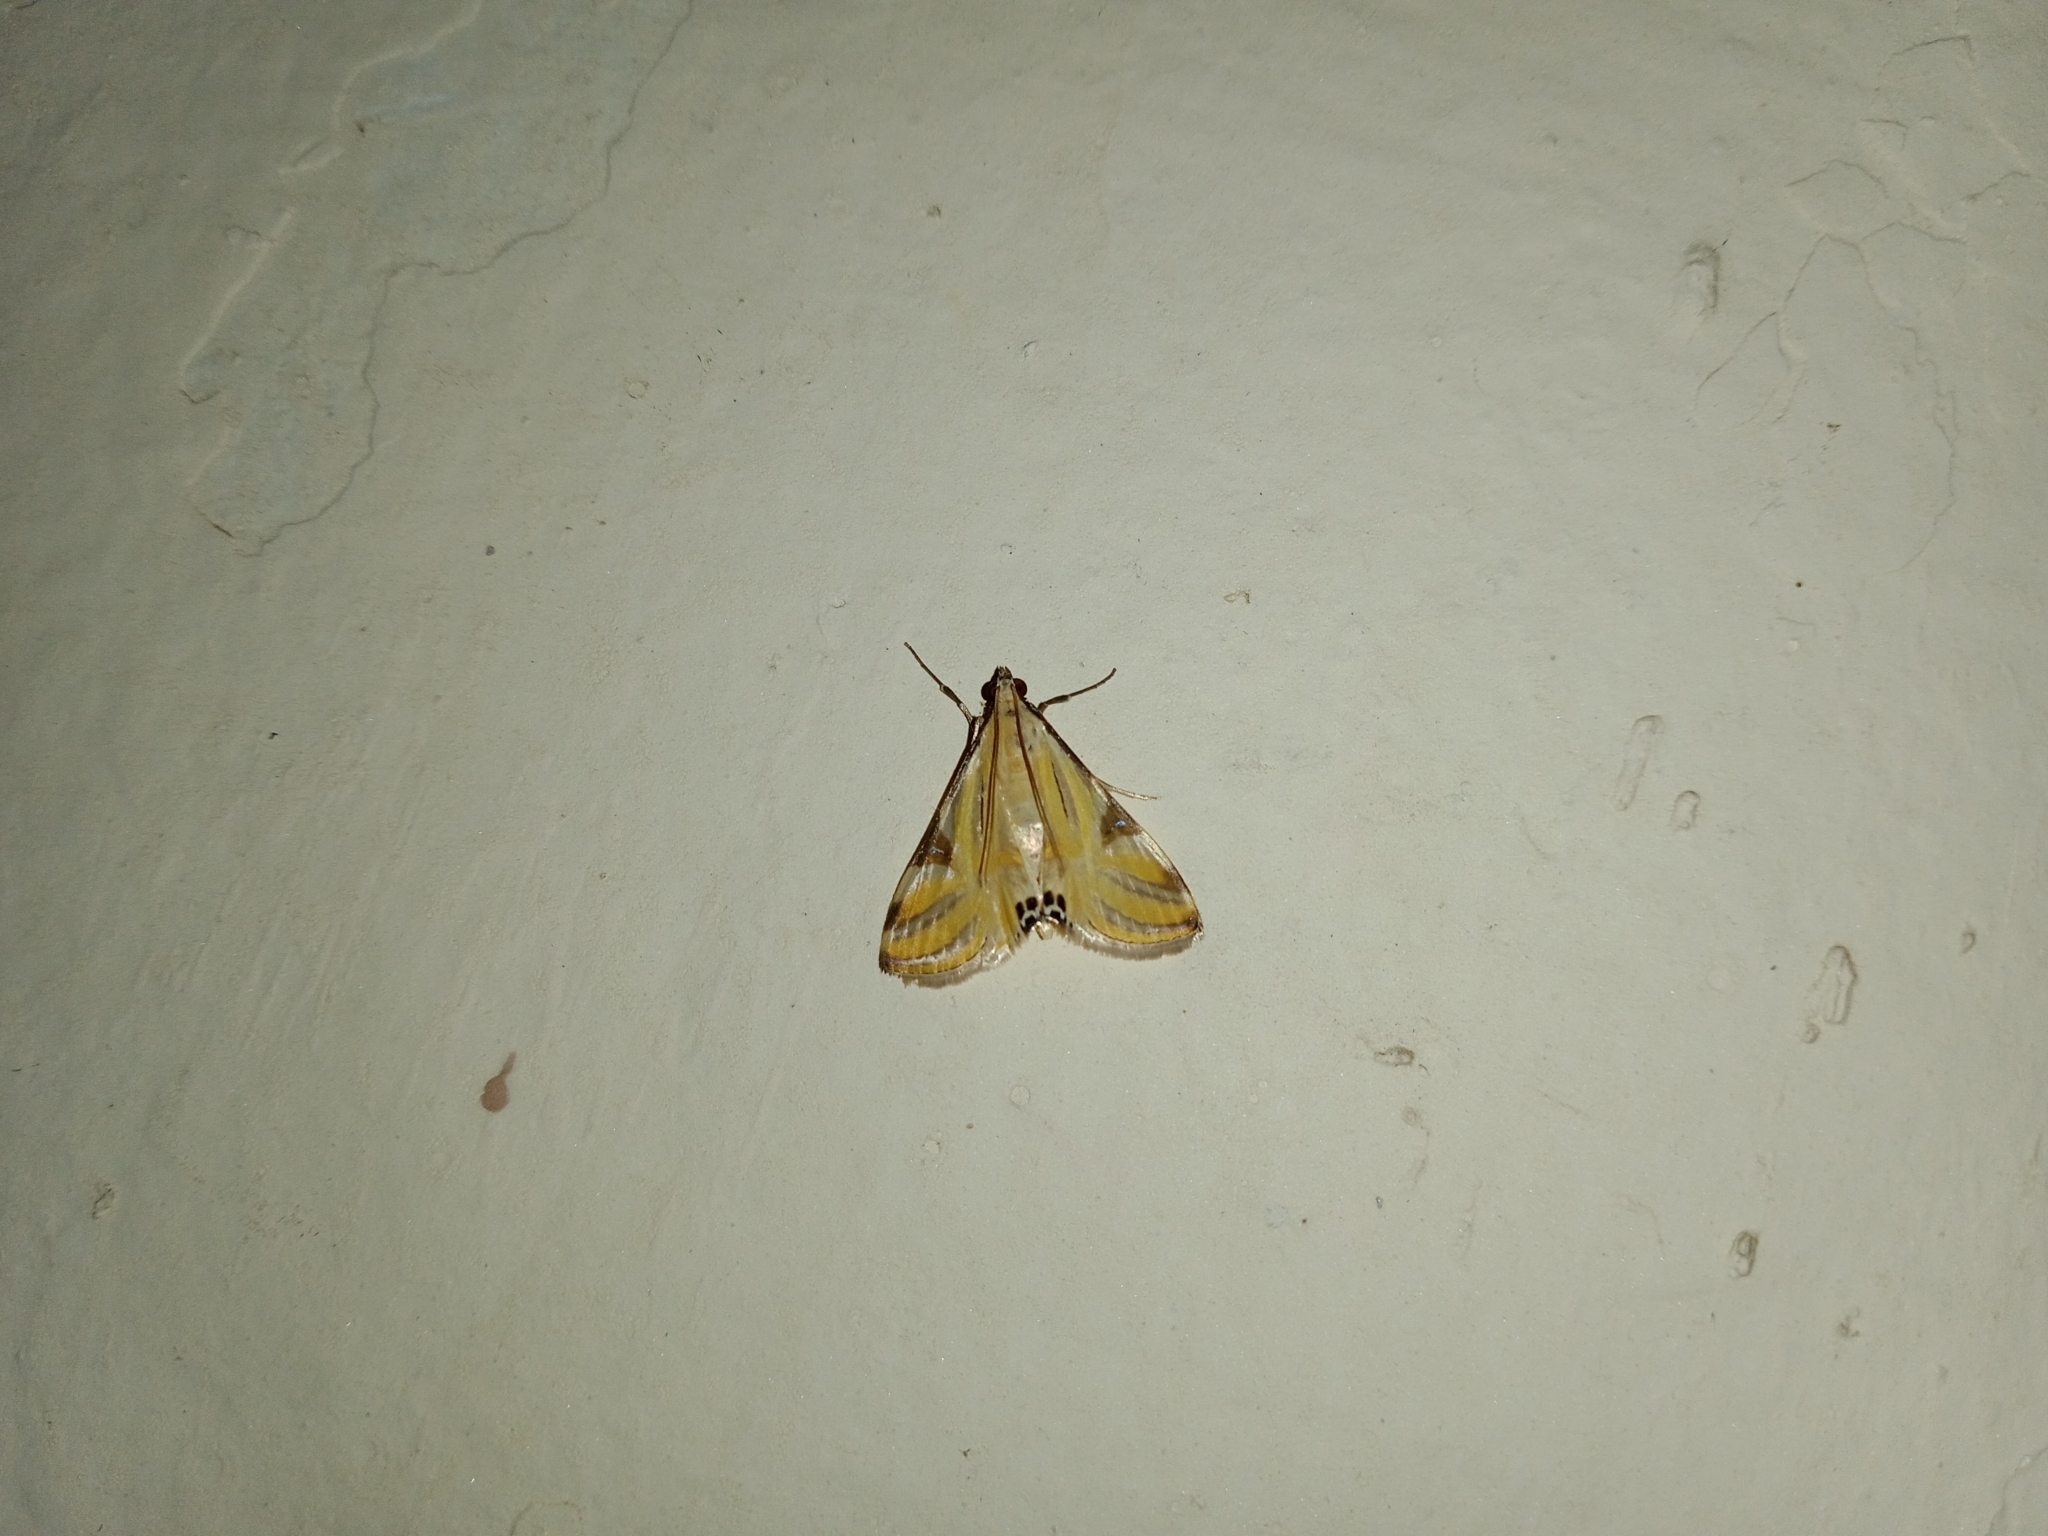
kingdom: Animalia
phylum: Arthropoda
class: Insecta
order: Lepidoptera
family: Crambidae
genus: Talanga
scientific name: Talanga sexpunctalis
